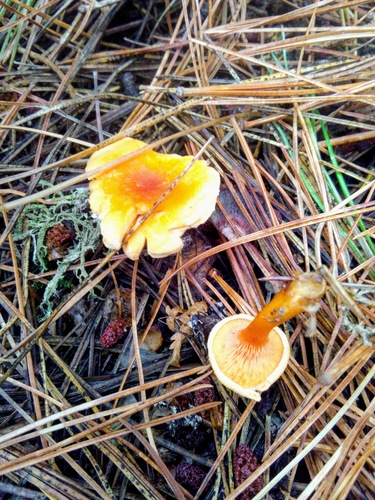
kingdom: Fungi
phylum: Basidiomycota
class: Agaricomycetes
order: Boletales
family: Hygrophoropsidaceae
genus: Hygrophoropsis
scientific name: Hygrophoropsis aurantiaca
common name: False chanterelle
